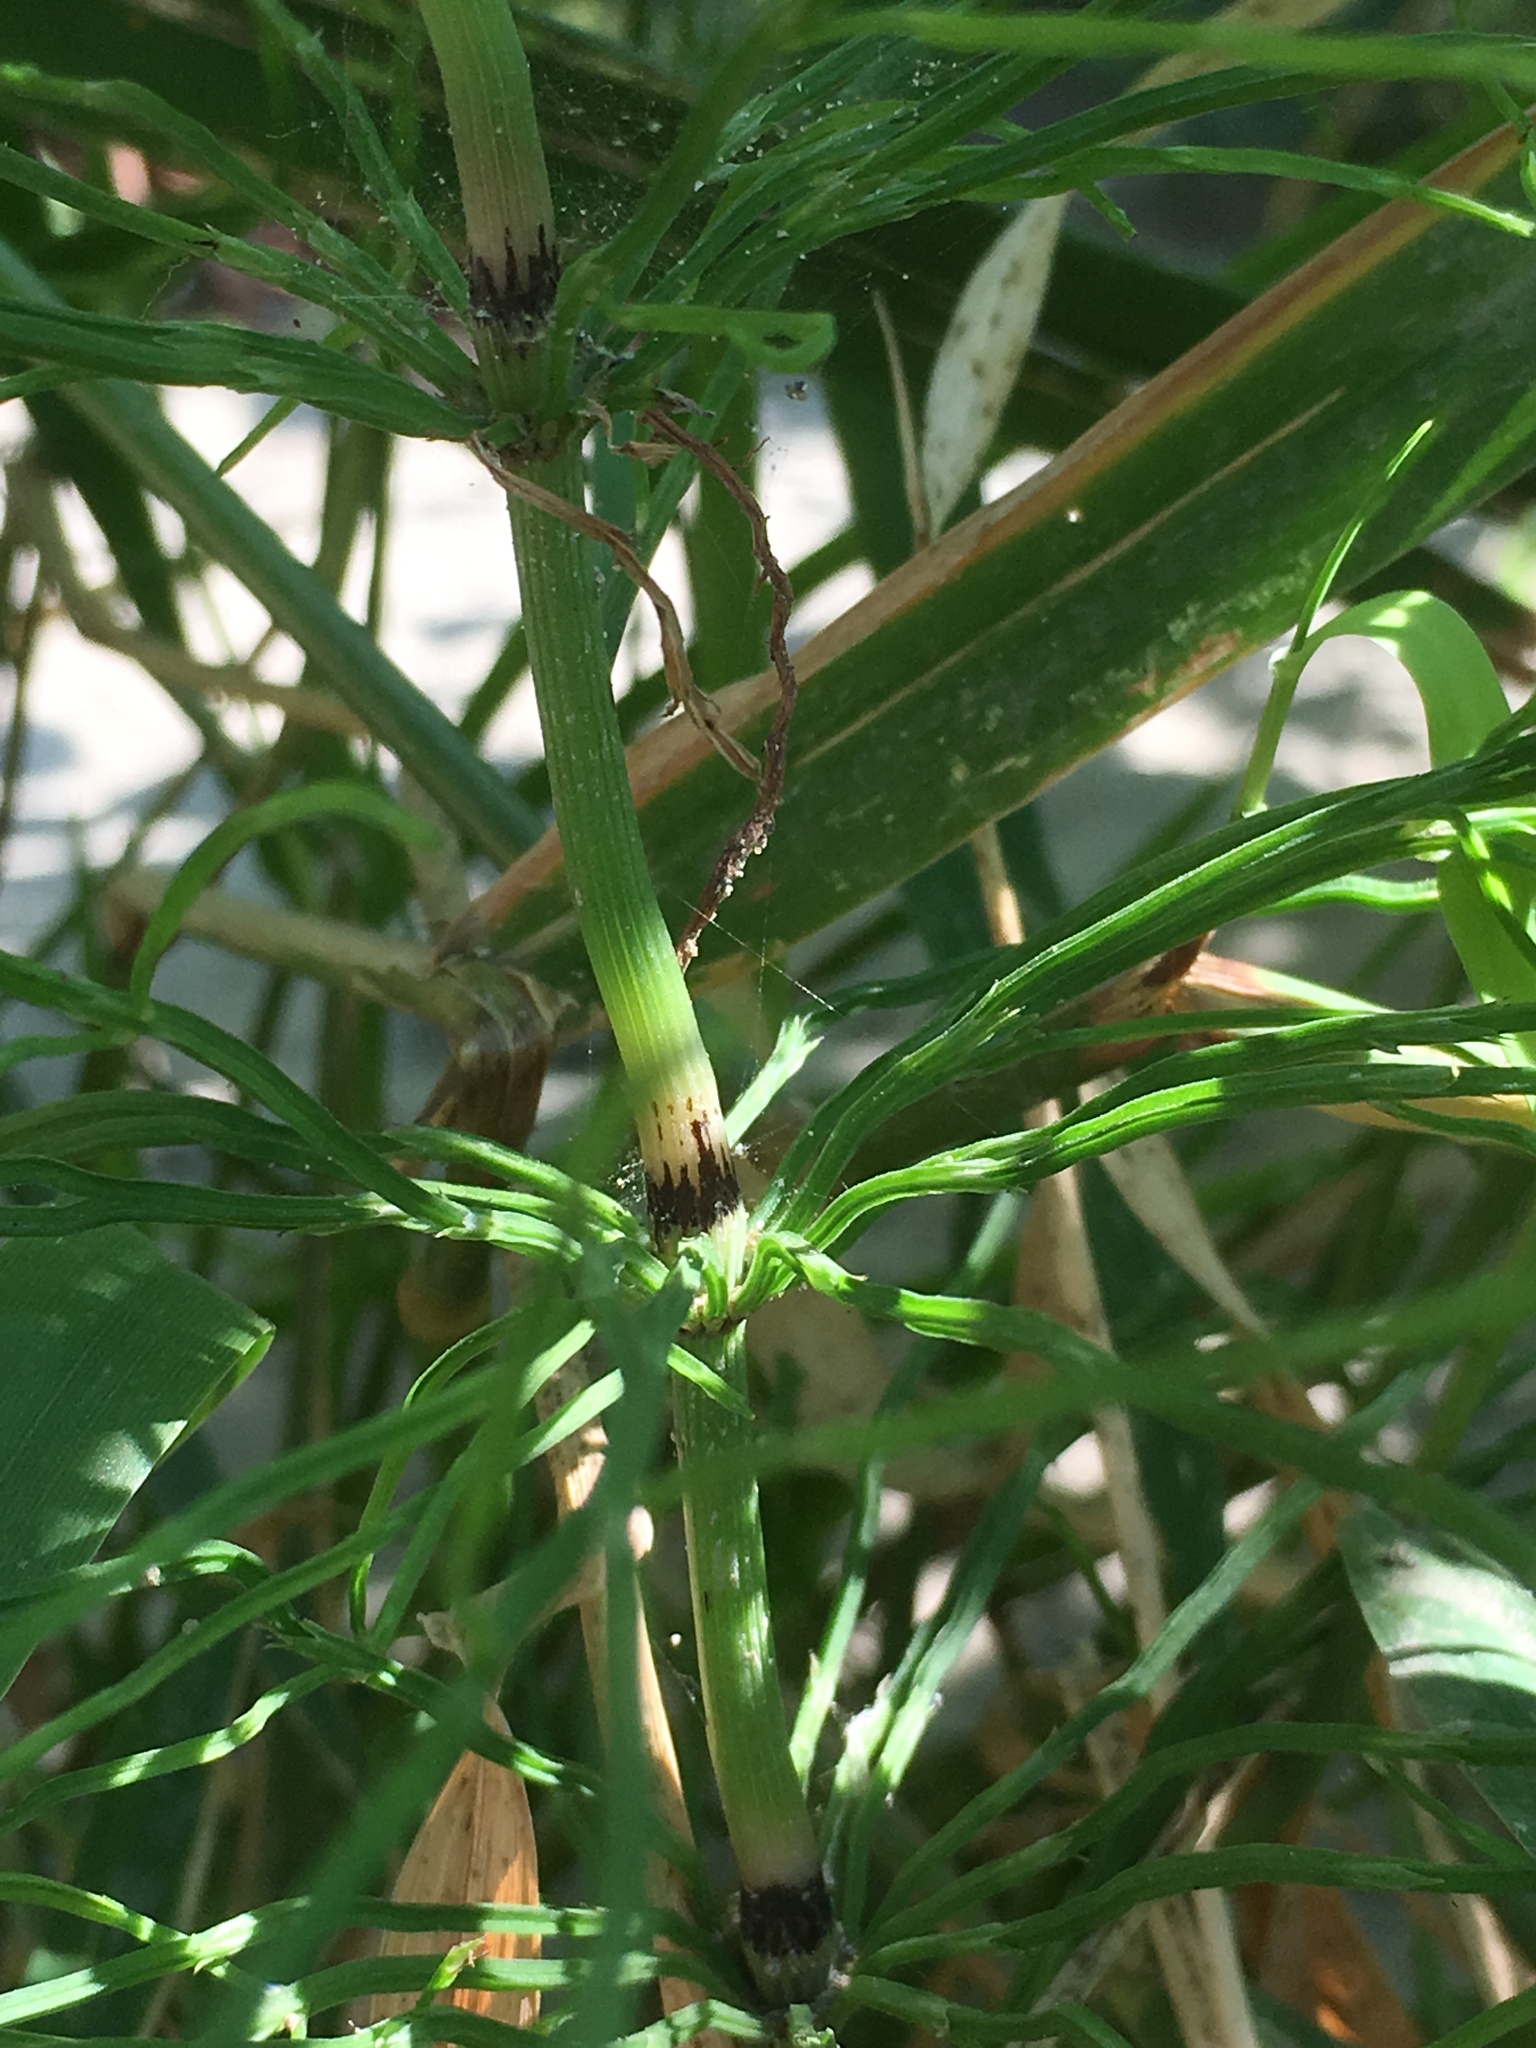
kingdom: Plantae
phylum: Tracheophyta
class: Polypodiopsida
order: Equisetales
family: Equisetaceae
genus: Equisetum
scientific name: Equisetum arvense
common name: Field horsetail
